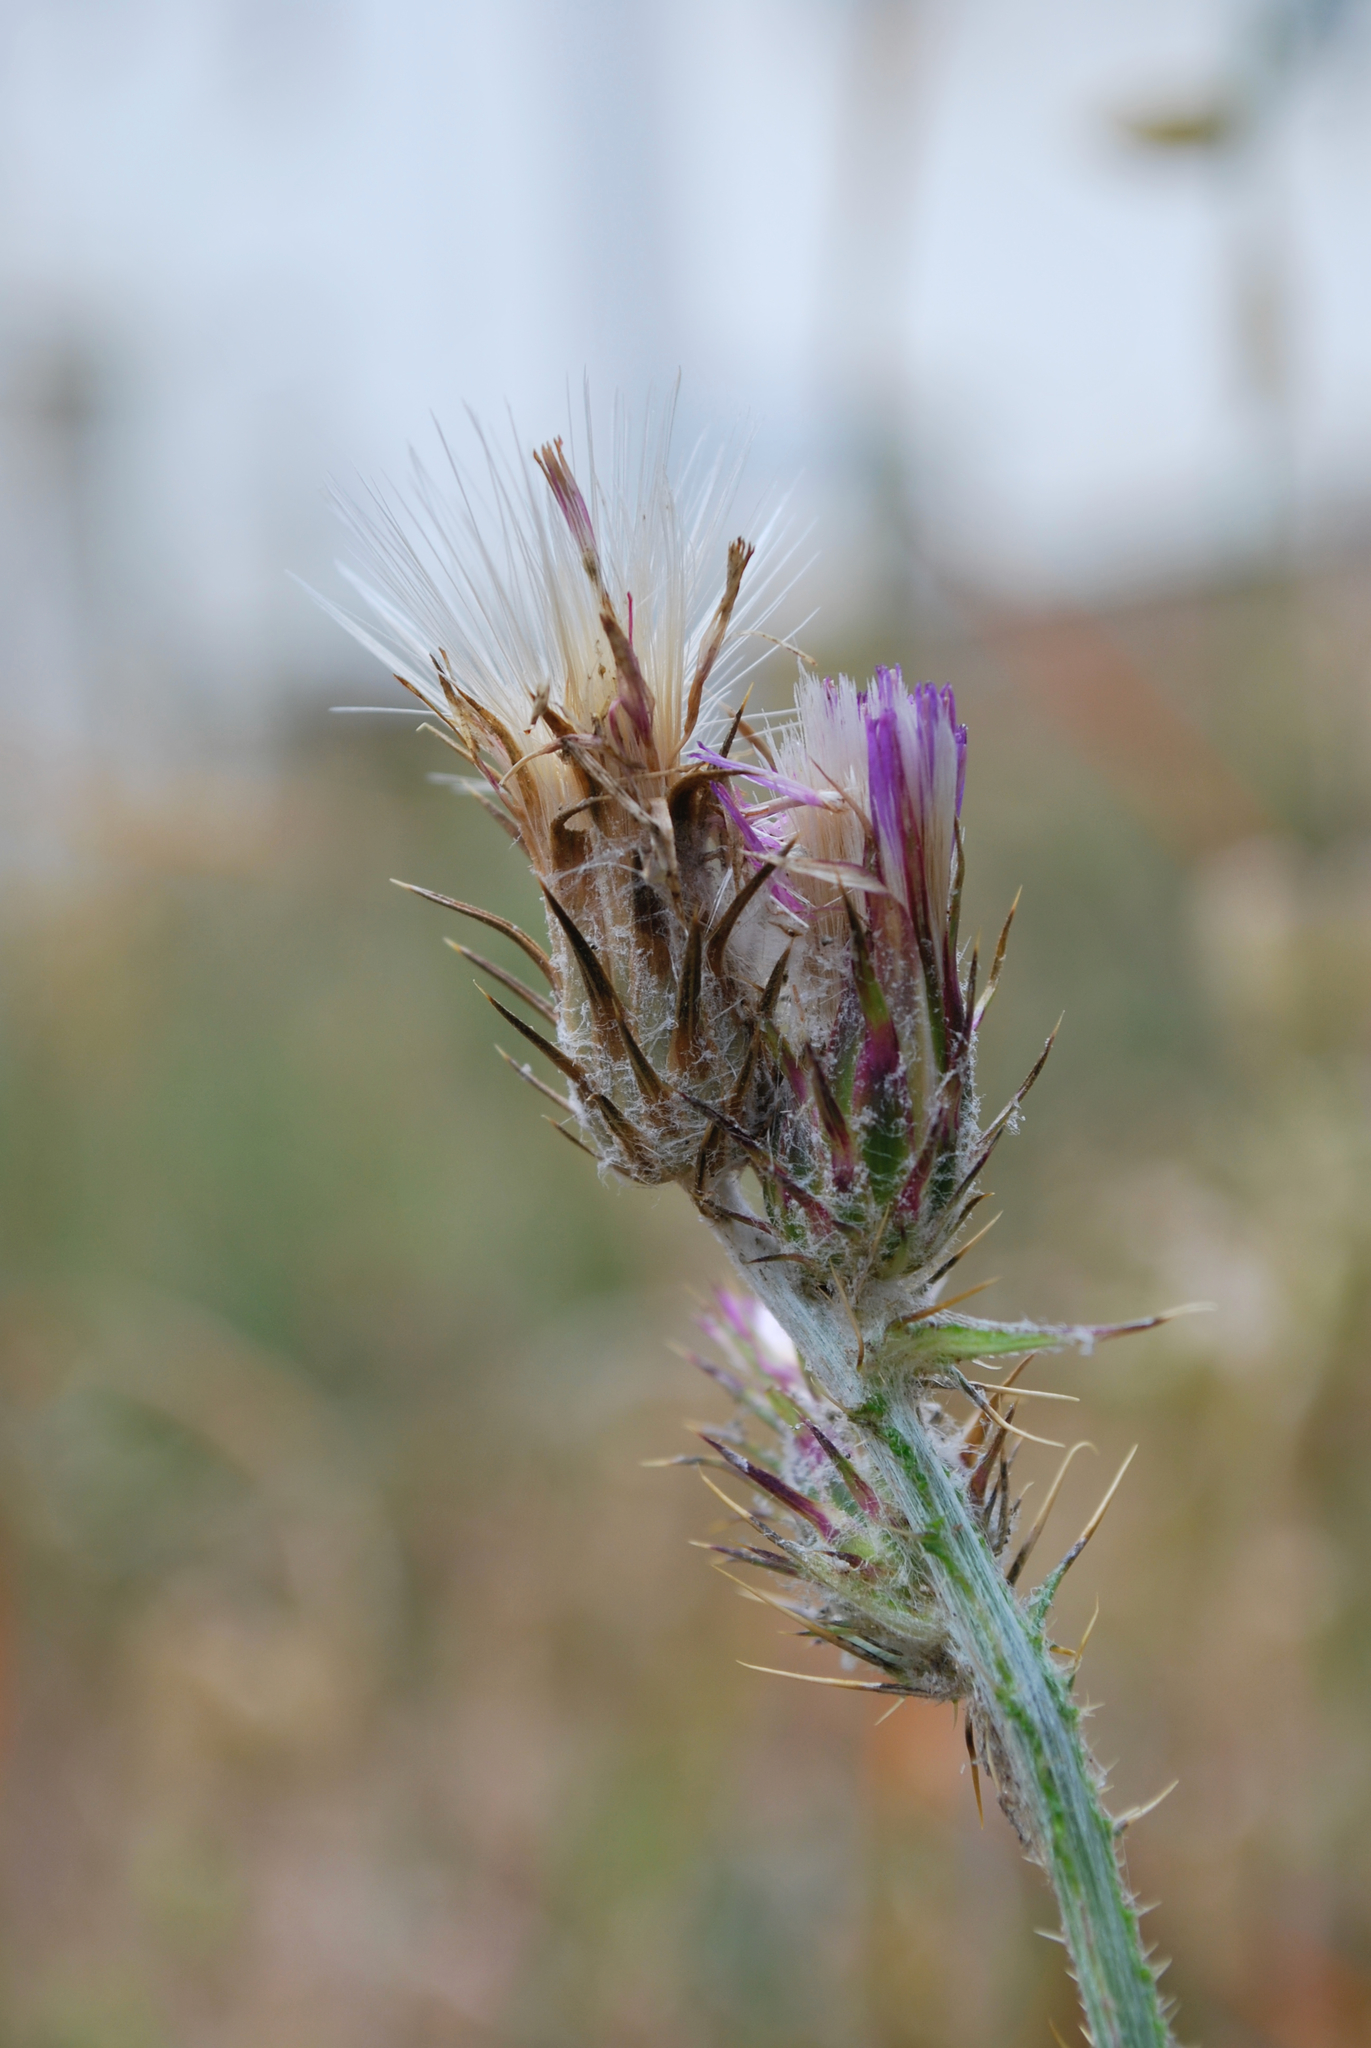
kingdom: Plantae
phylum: Tracheophyta
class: Magnoliopsida
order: Asterales
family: Asteraceae
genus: Carduus
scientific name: Carduus pycnocephalus
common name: Plymouth thistle
